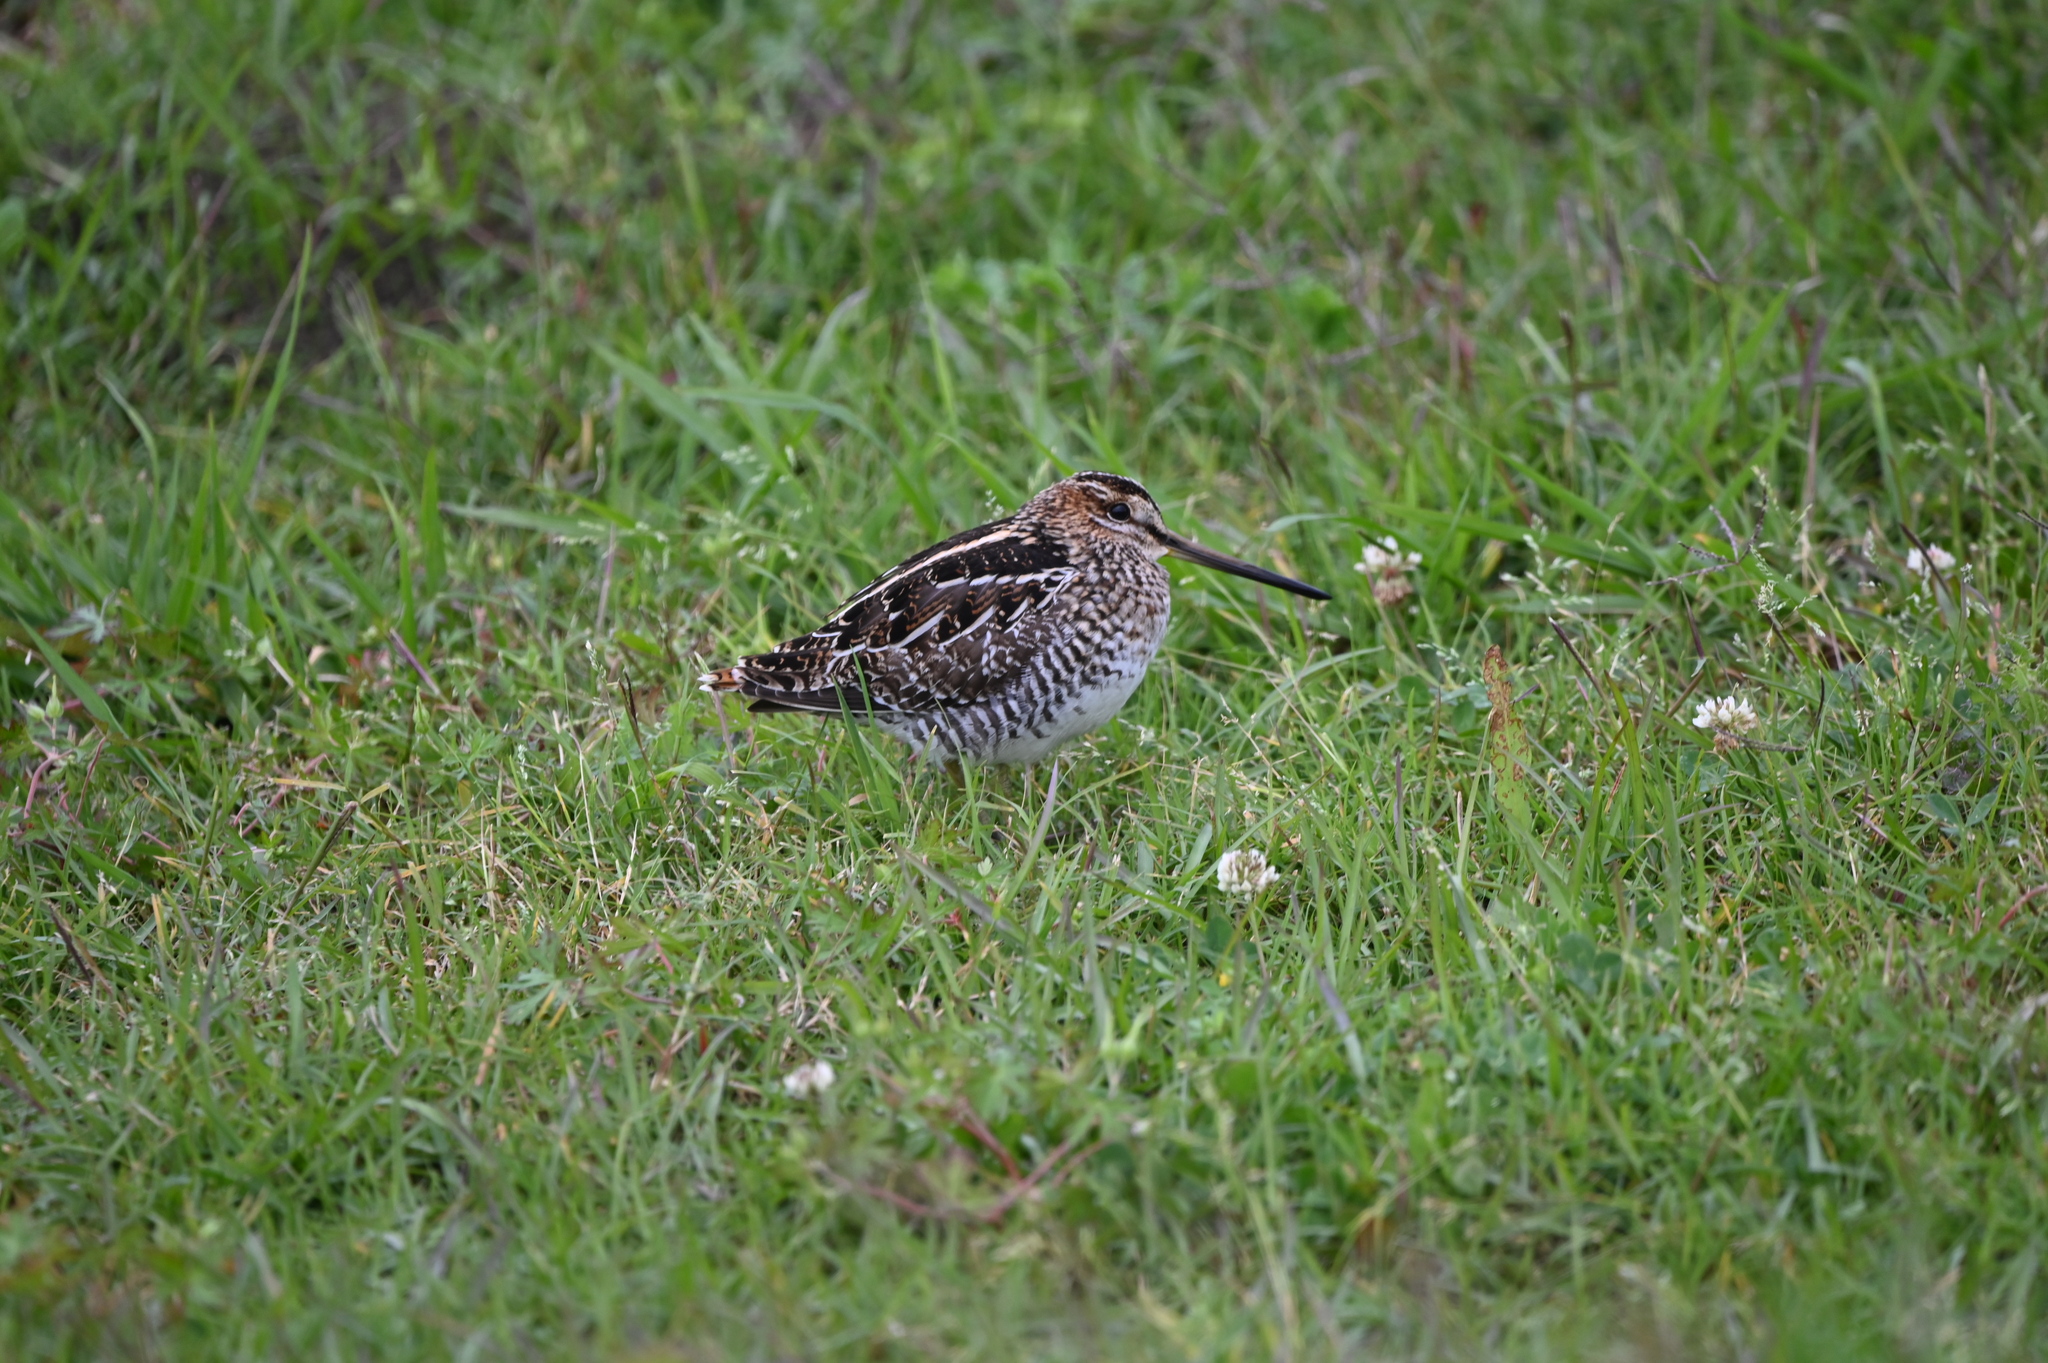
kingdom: Animalia
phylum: Chordata
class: Aves
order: Charadriiformes
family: Scolopacidae
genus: Gallinago
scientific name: Gallinago delicata
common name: Wilson's snipe
